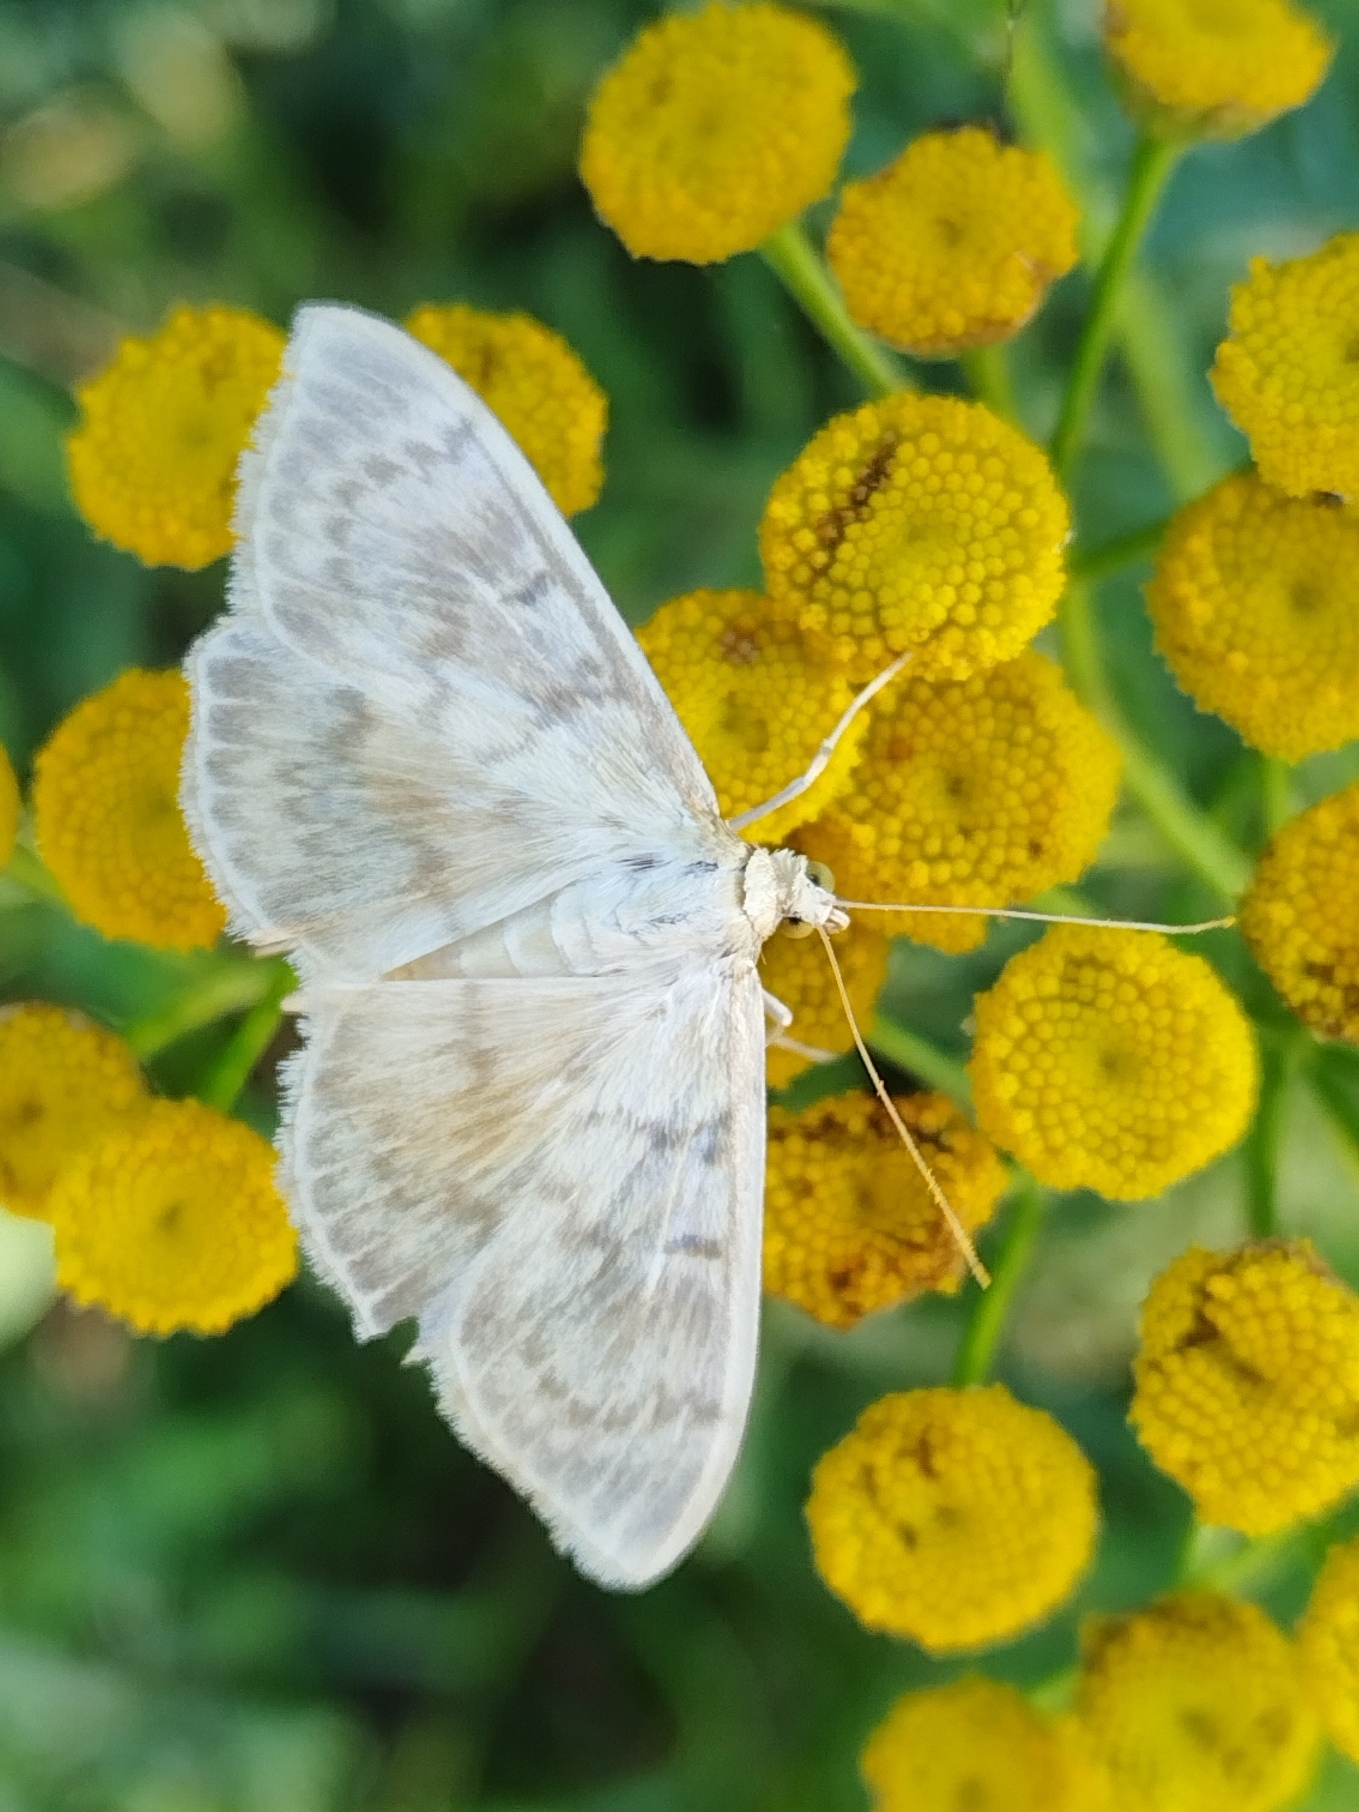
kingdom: Animalia
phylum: Arthropoda
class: Insecta
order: Lepidoptera
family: Crambidae
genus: Patania
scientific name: Patania ruralis
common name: Mother of pearl
